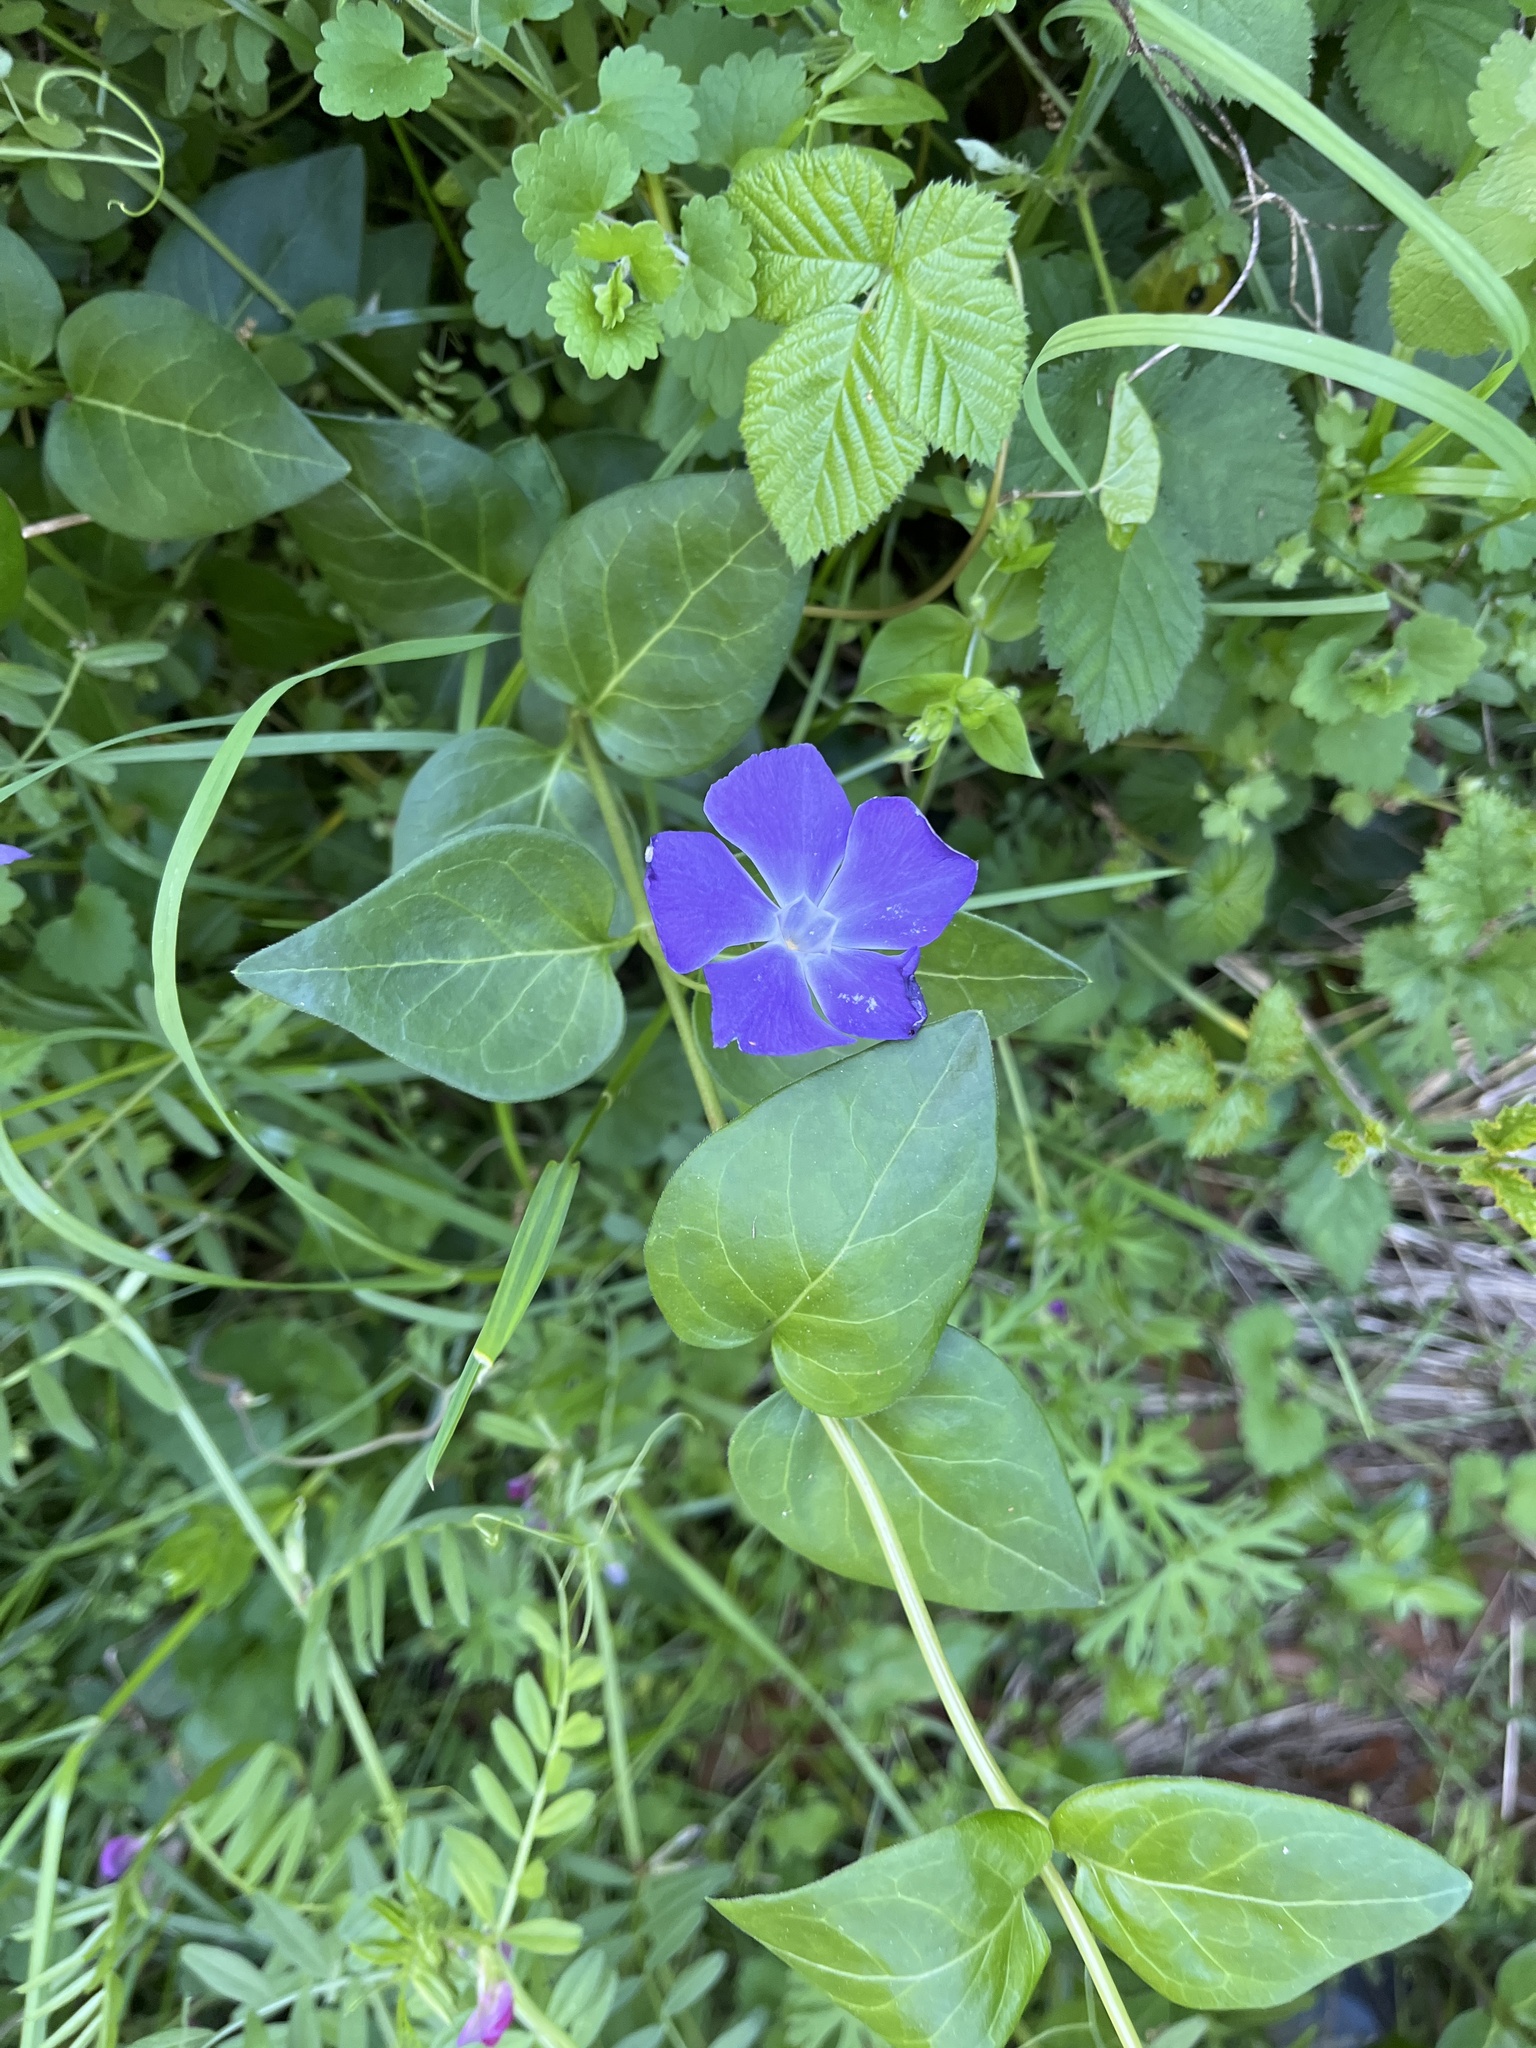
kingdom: Plantae
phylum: Tracheophyta
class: Magnoliopsida
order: Gentianales
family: Apocynaceae
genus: Vinca
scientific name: Vinca major
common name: Greater periwinkle
